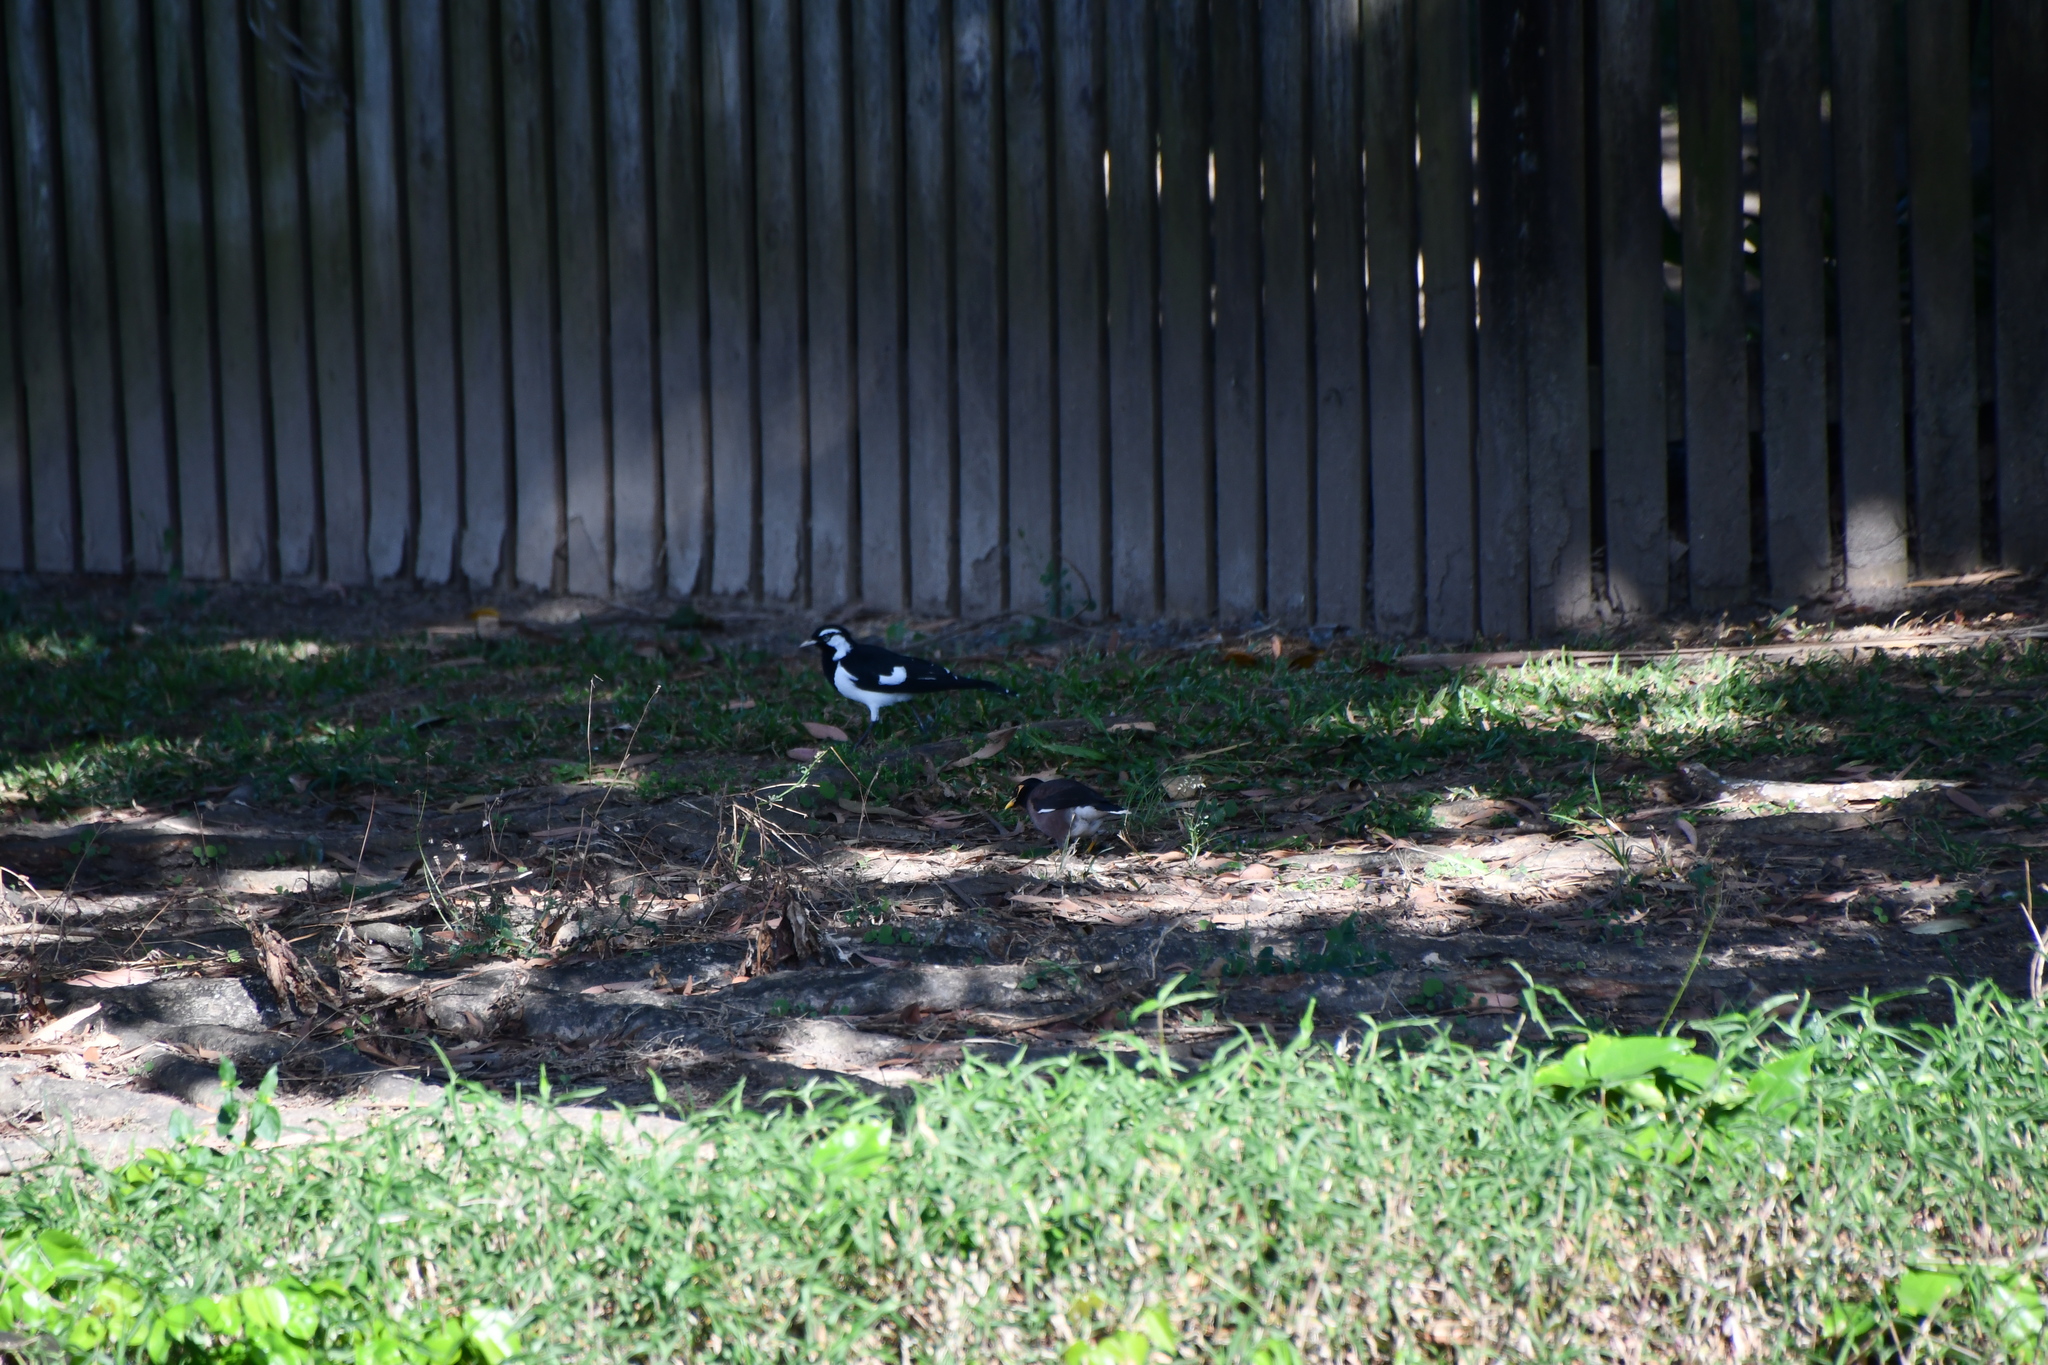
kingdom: Animalia
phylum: Chordata
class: Aves
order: Passeriformes
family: Sturnidae
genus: Acridotheres
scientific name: Acridotheres tristis
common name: Common myna
